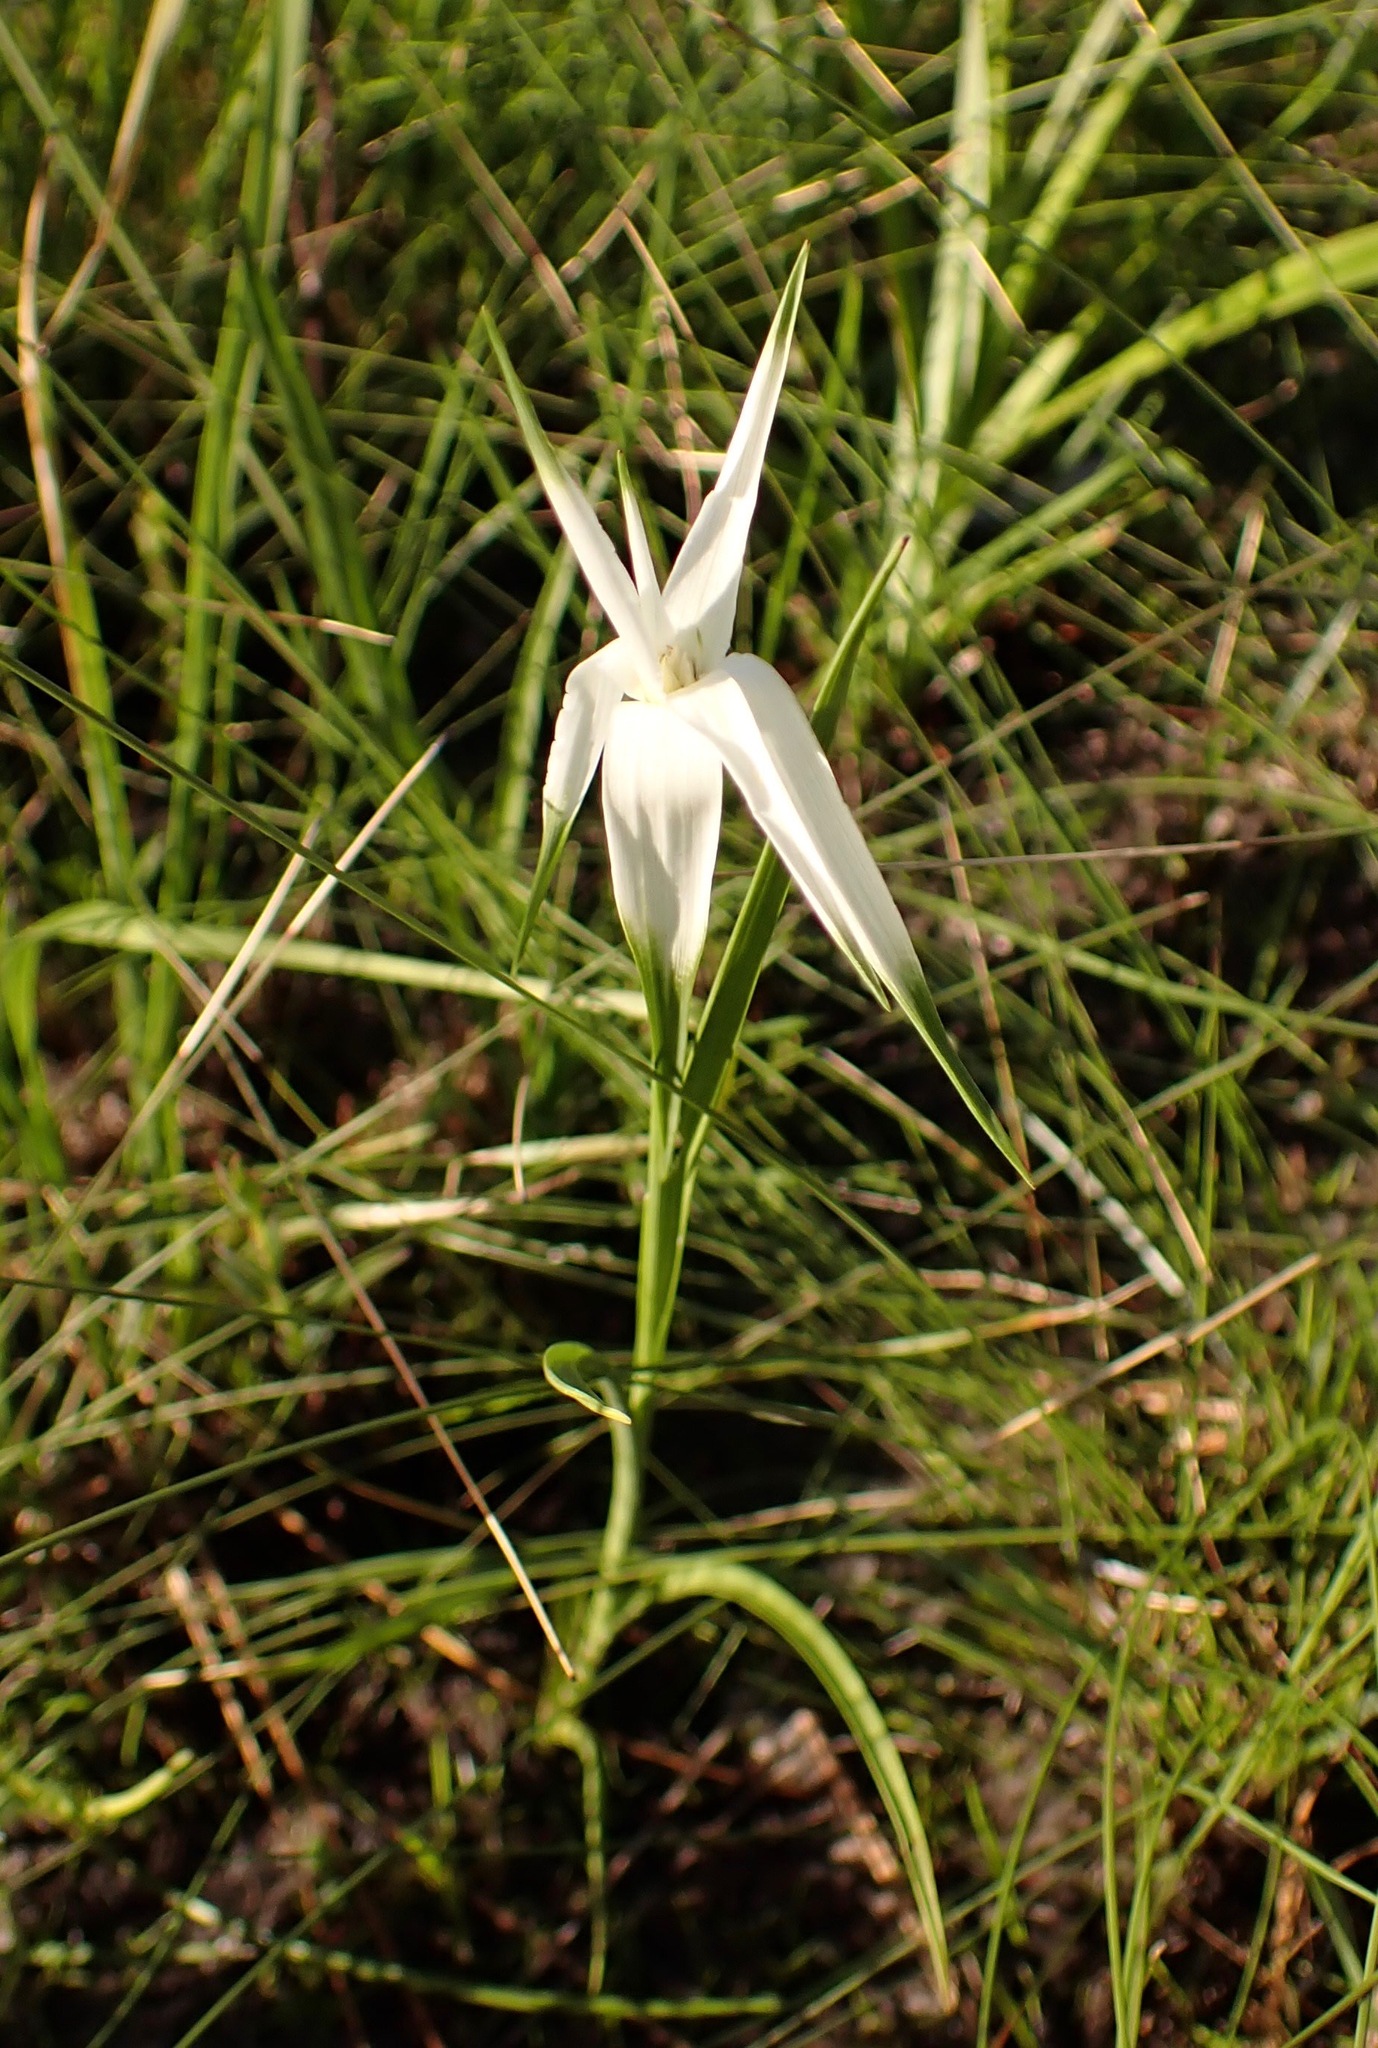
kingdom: Plantae
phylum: Tracheophyta
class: Liliopsida
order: Poales
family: Cyperaceae
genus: Rhynchospora
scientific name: Rhynchospora latifolia
